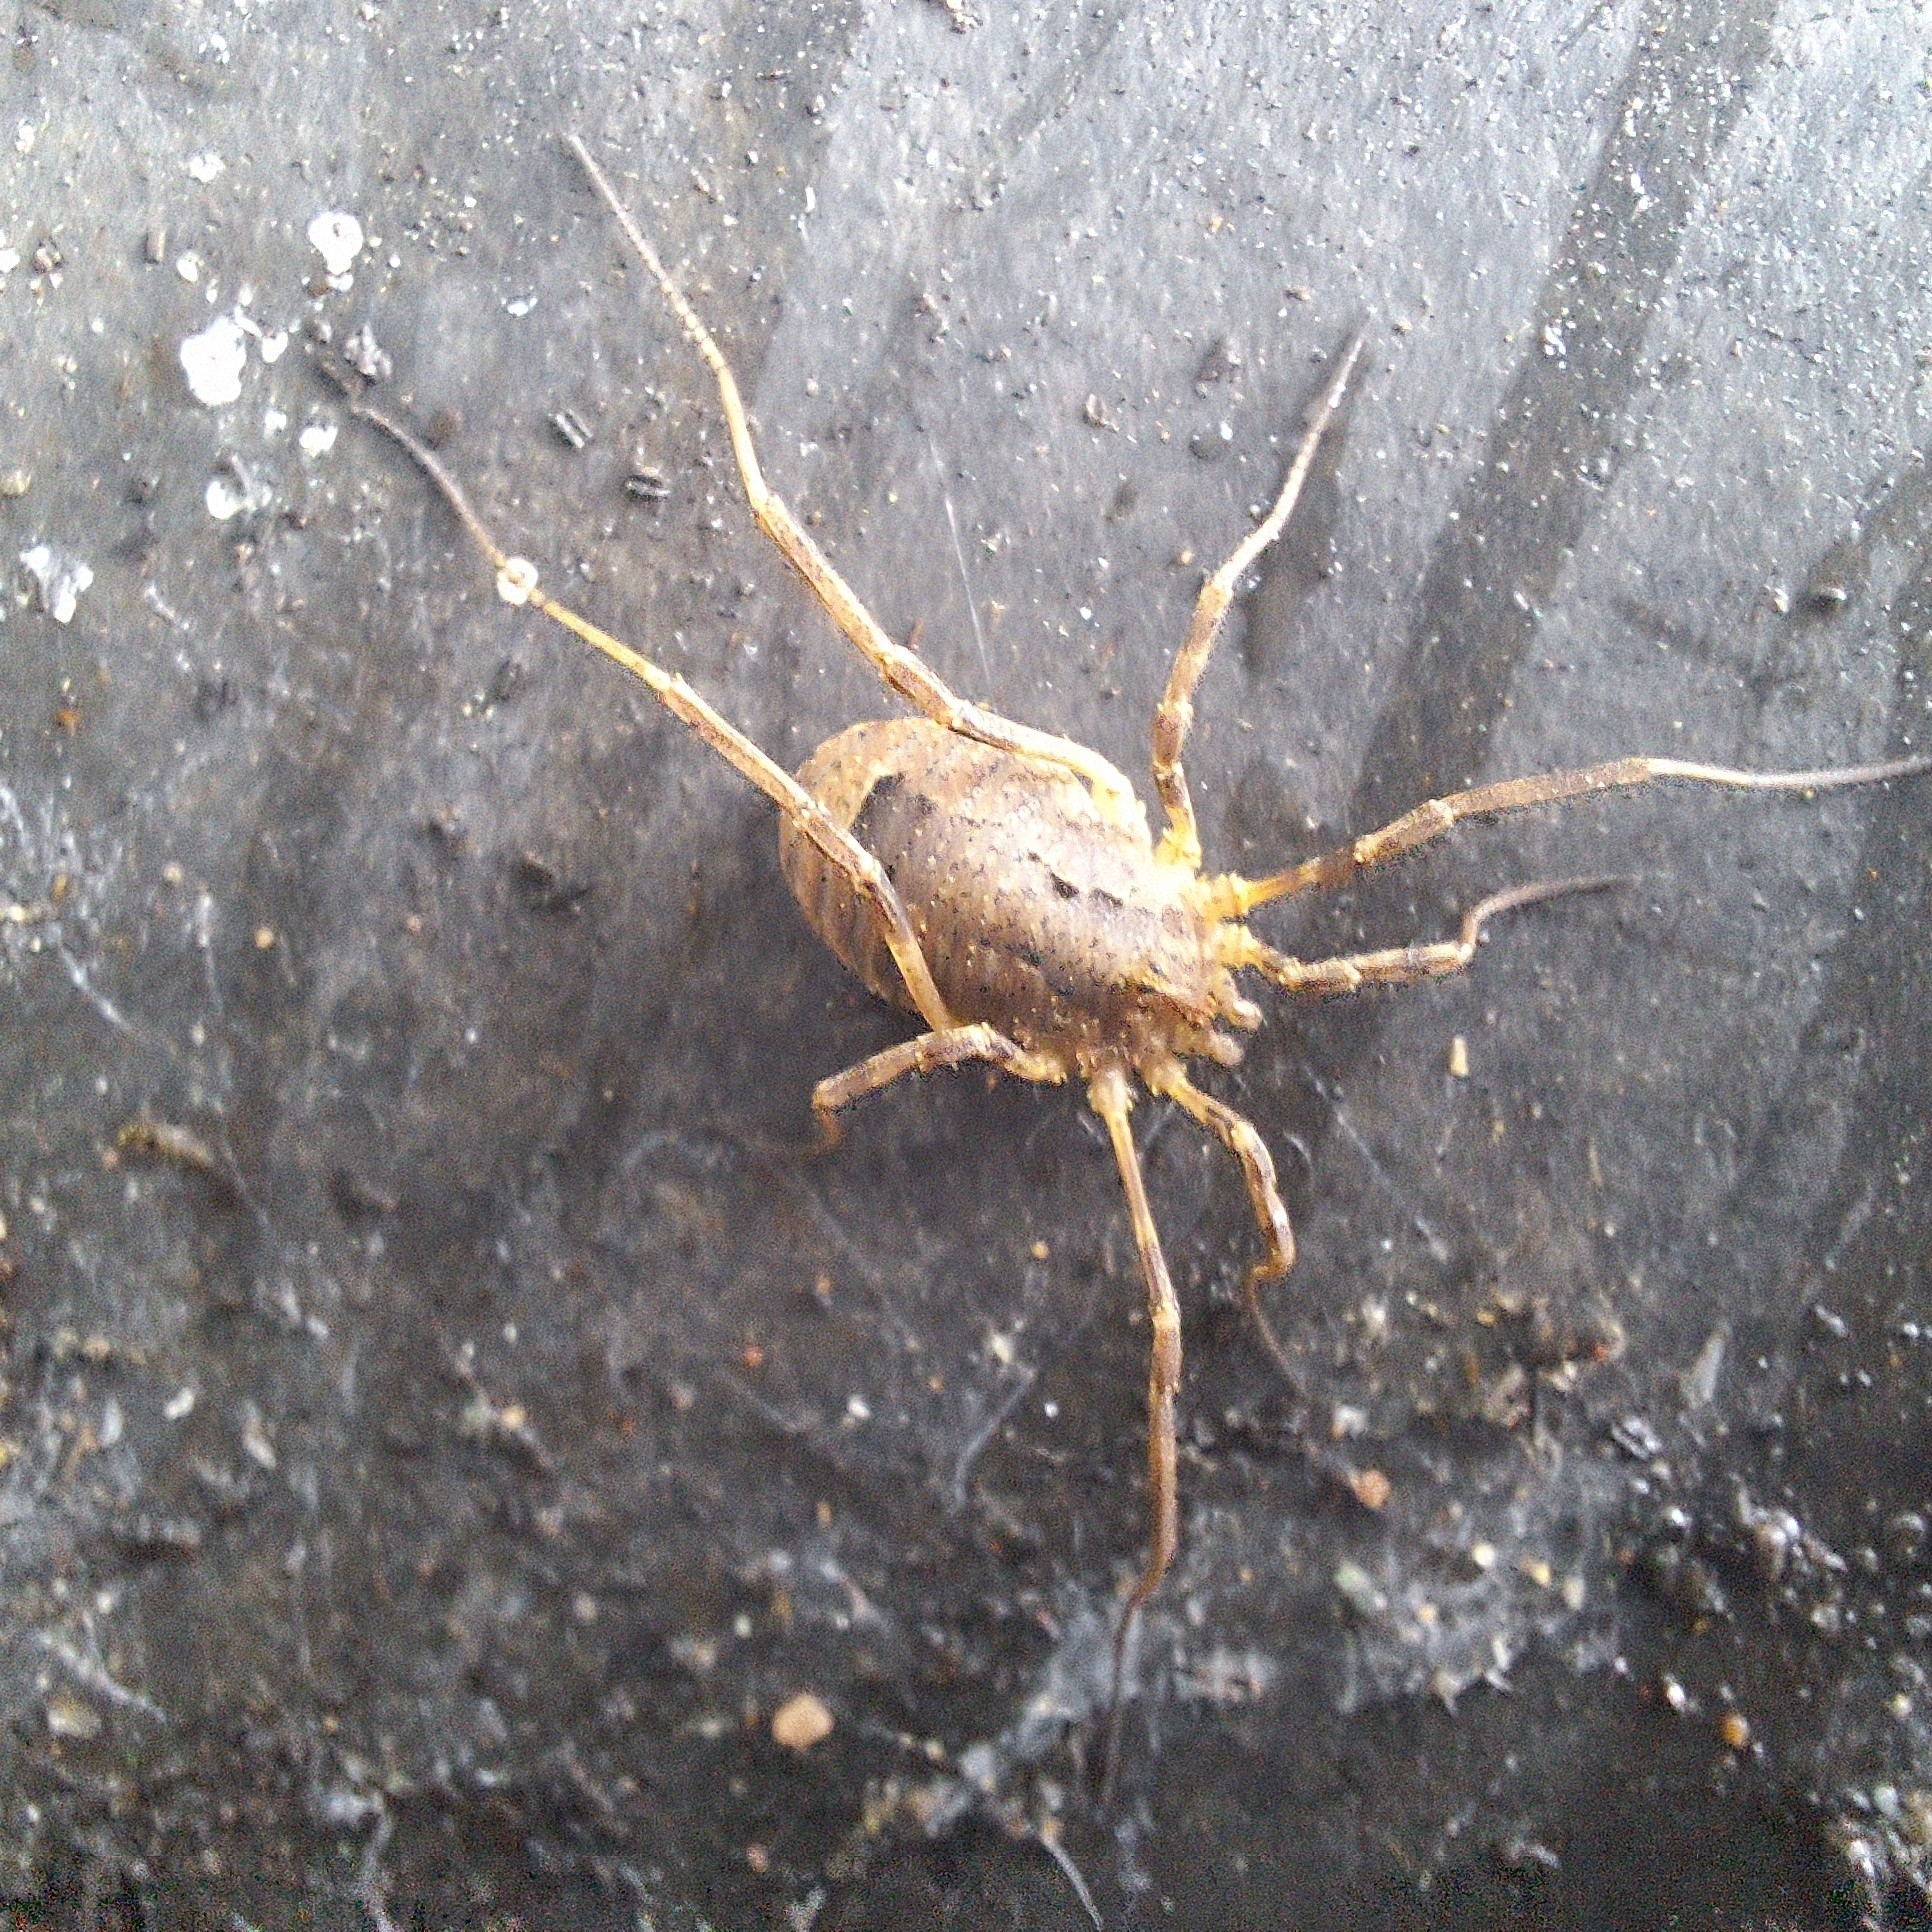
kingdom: Animalia
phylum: Arthropoda
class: Arachnida
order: Opiliones
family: Phalangiidae
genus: Odiellus
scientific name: Odiellus spinosus
